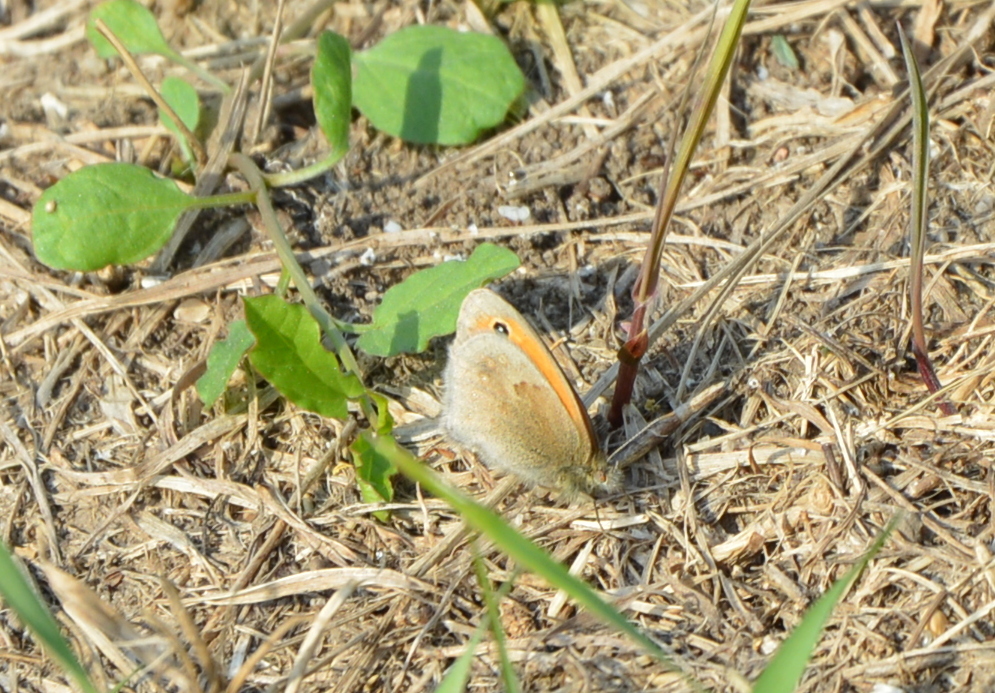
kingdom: Animalia
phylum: Arthropoda
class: Insecta
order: Lepidoptera
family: Nymphalidae
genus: Coenonympha
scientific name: Coenonympha pamphilus
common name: Small heath
